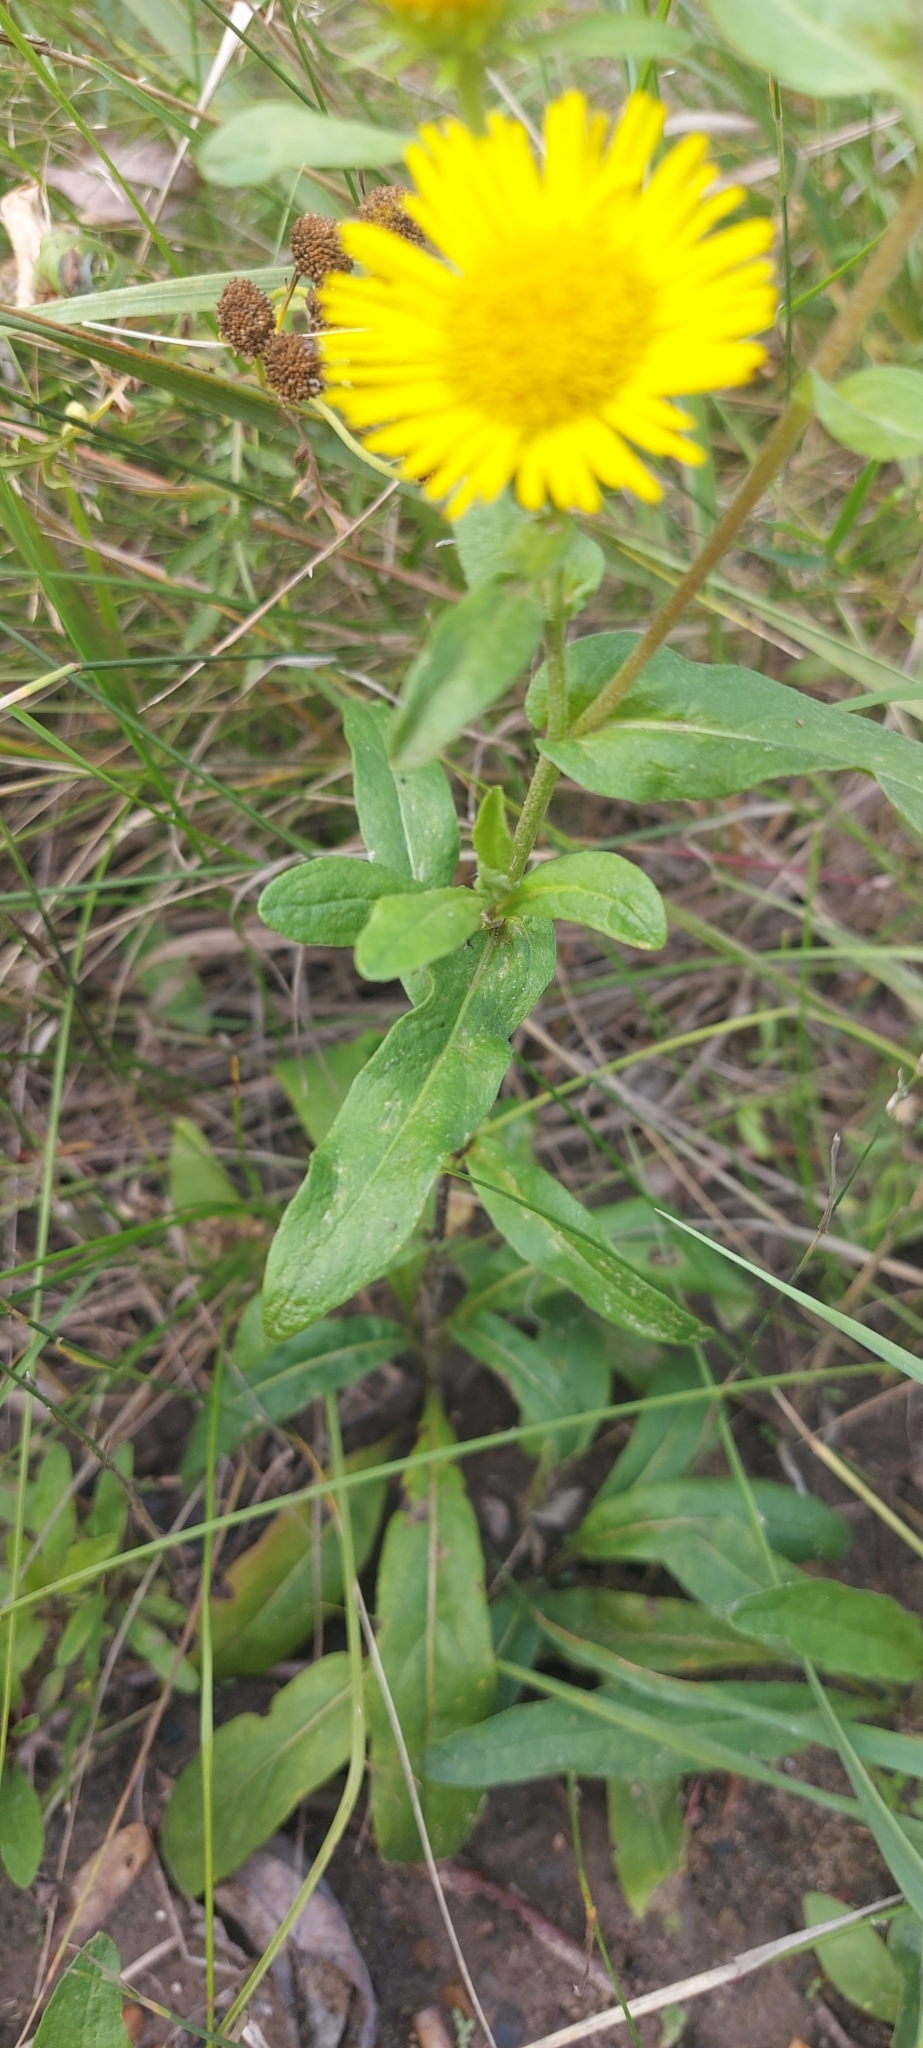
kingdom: Plantae
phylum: Tracheophyta
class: Magnoliopsida
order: Asterales
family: Asteraceae
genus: Pentanema
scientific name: Pentanema britannicum
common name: British elecampane
